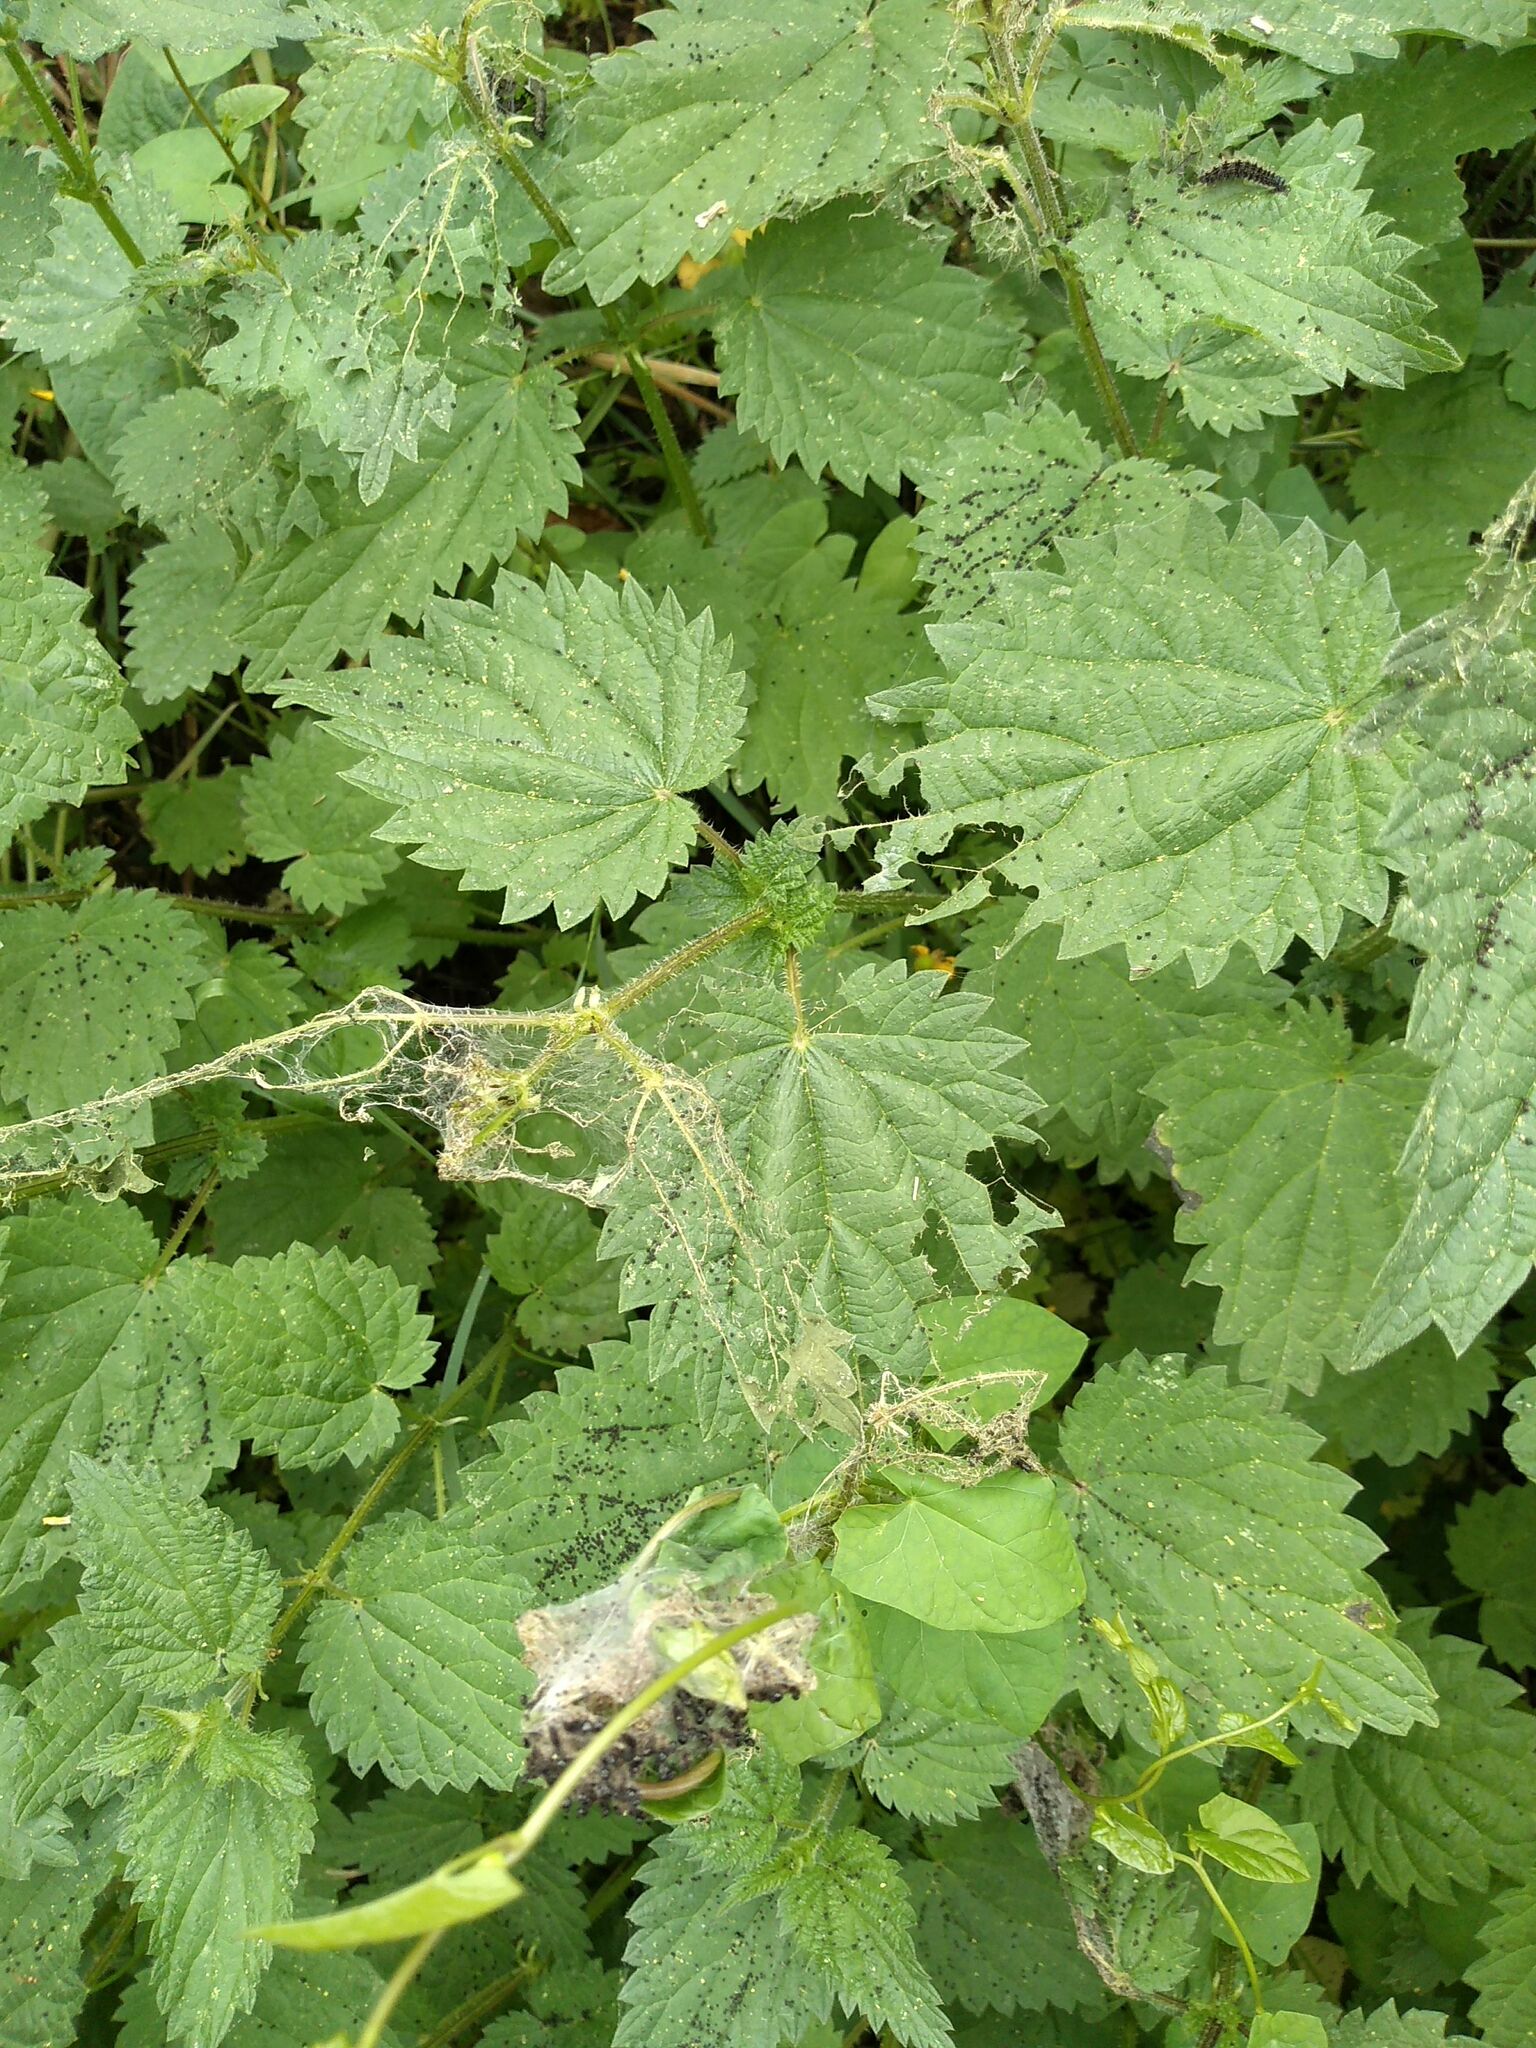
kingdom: Animalia
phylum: Arthropoda
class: Insecta
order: Lepidoptera
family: Nymphalidae
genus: Aglais
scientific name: Aglais urticae
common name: Small tortoiseshell
